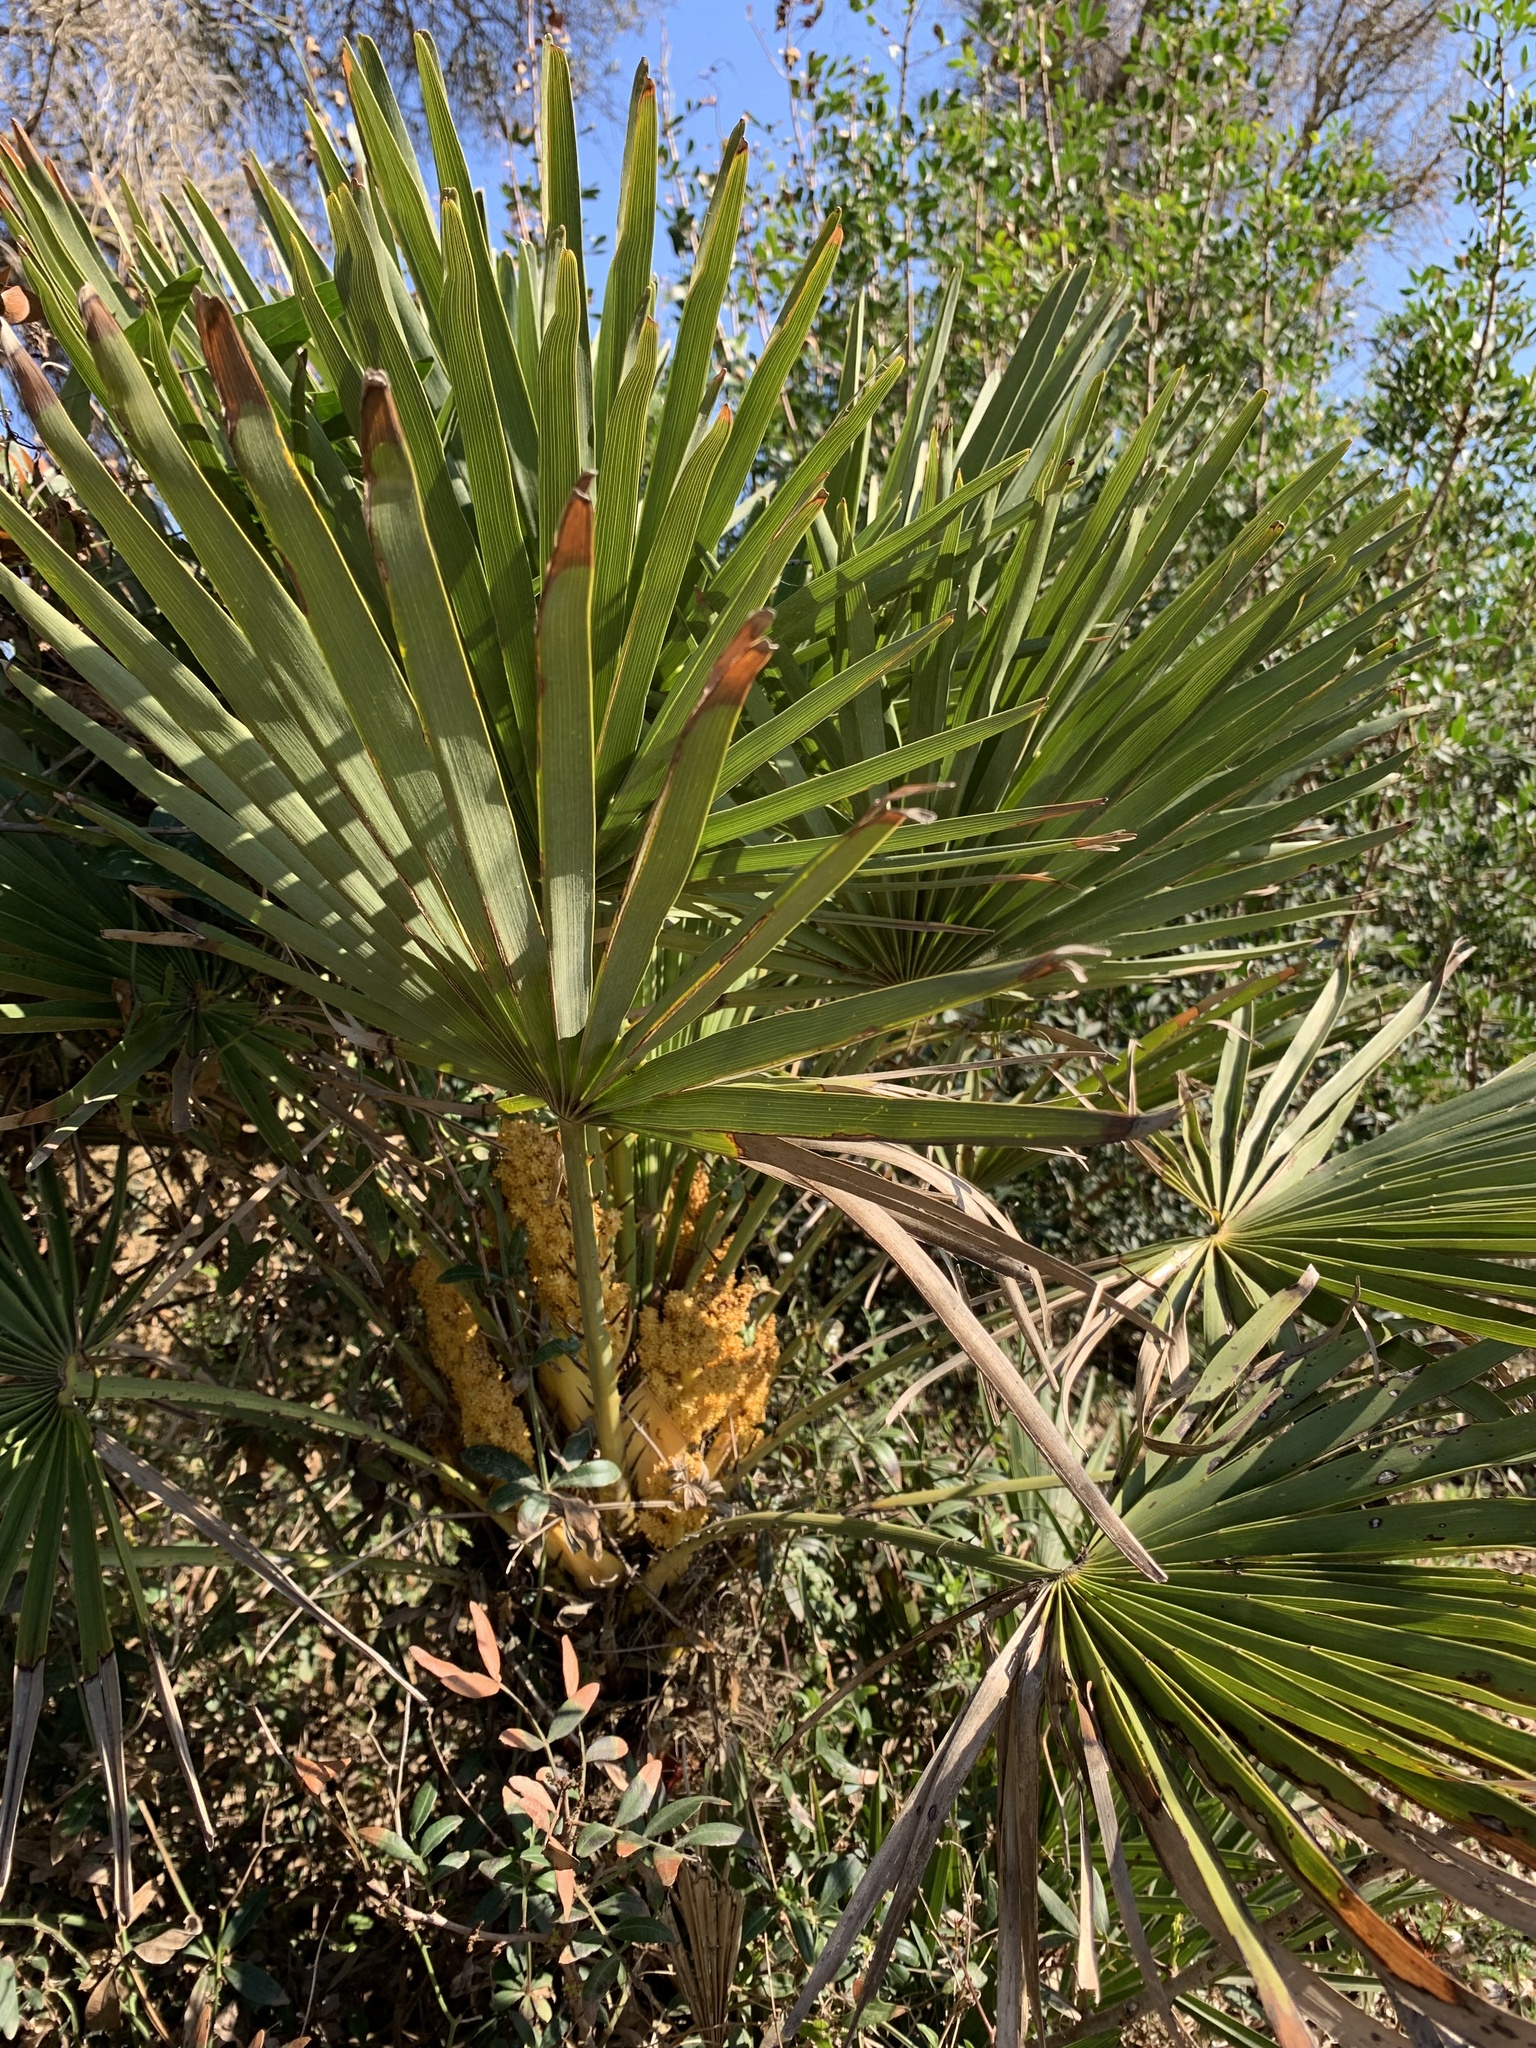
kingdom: Plantae
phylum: Tracheophyta
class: Liliopsida
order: Arecales
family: Arecaceae
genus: Chamaerops
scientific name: Chamaerops humilis
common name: Dwarf fan palm
